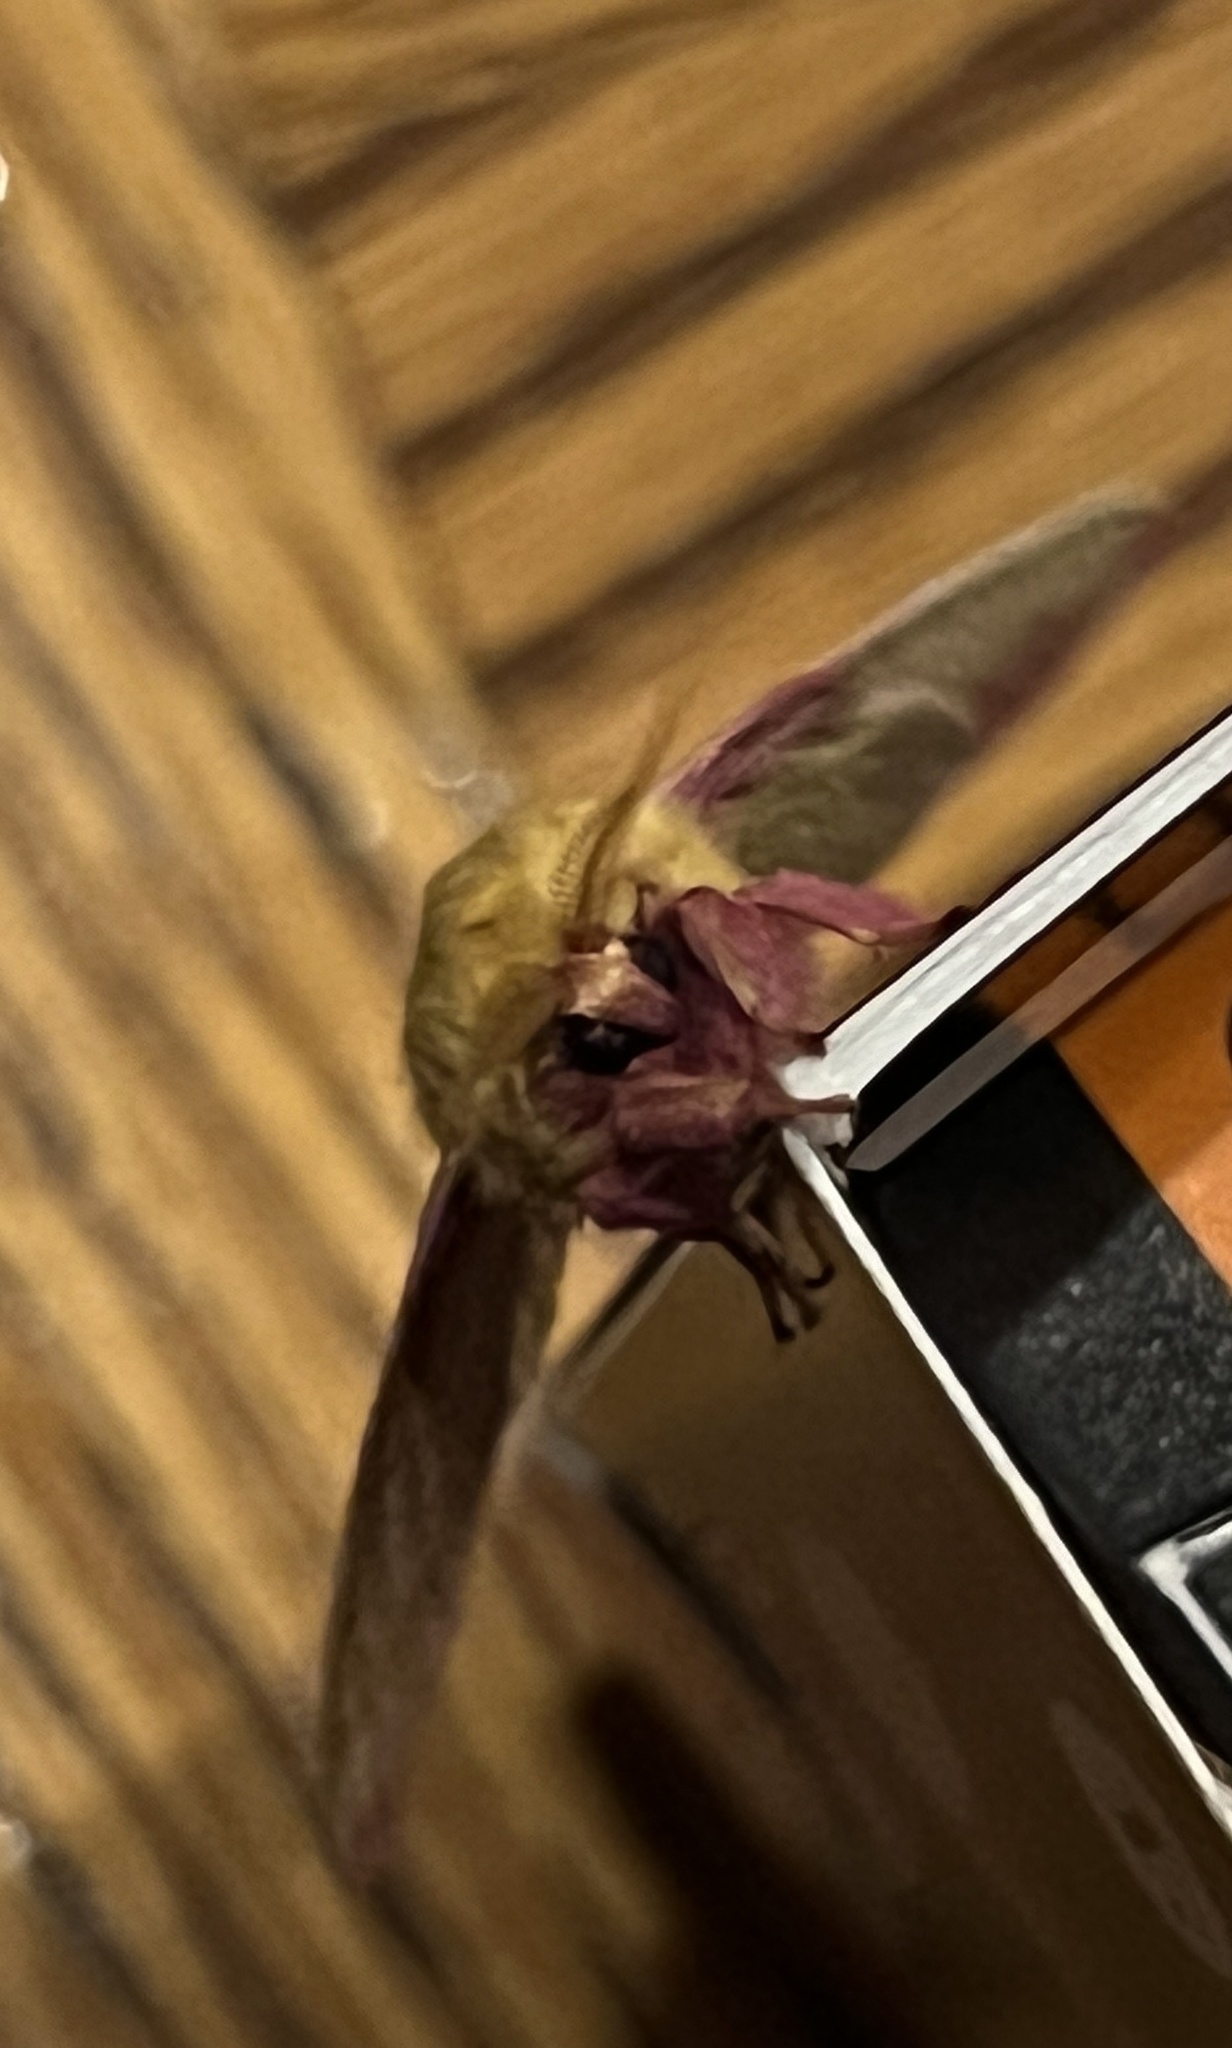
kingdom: Animalia
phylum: Arthropoda
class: Insecta
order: Lepidoptera
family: Saturniidae
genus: Dryocampa
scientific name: Dryocampa rubicunda
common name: Rosy maple moth
